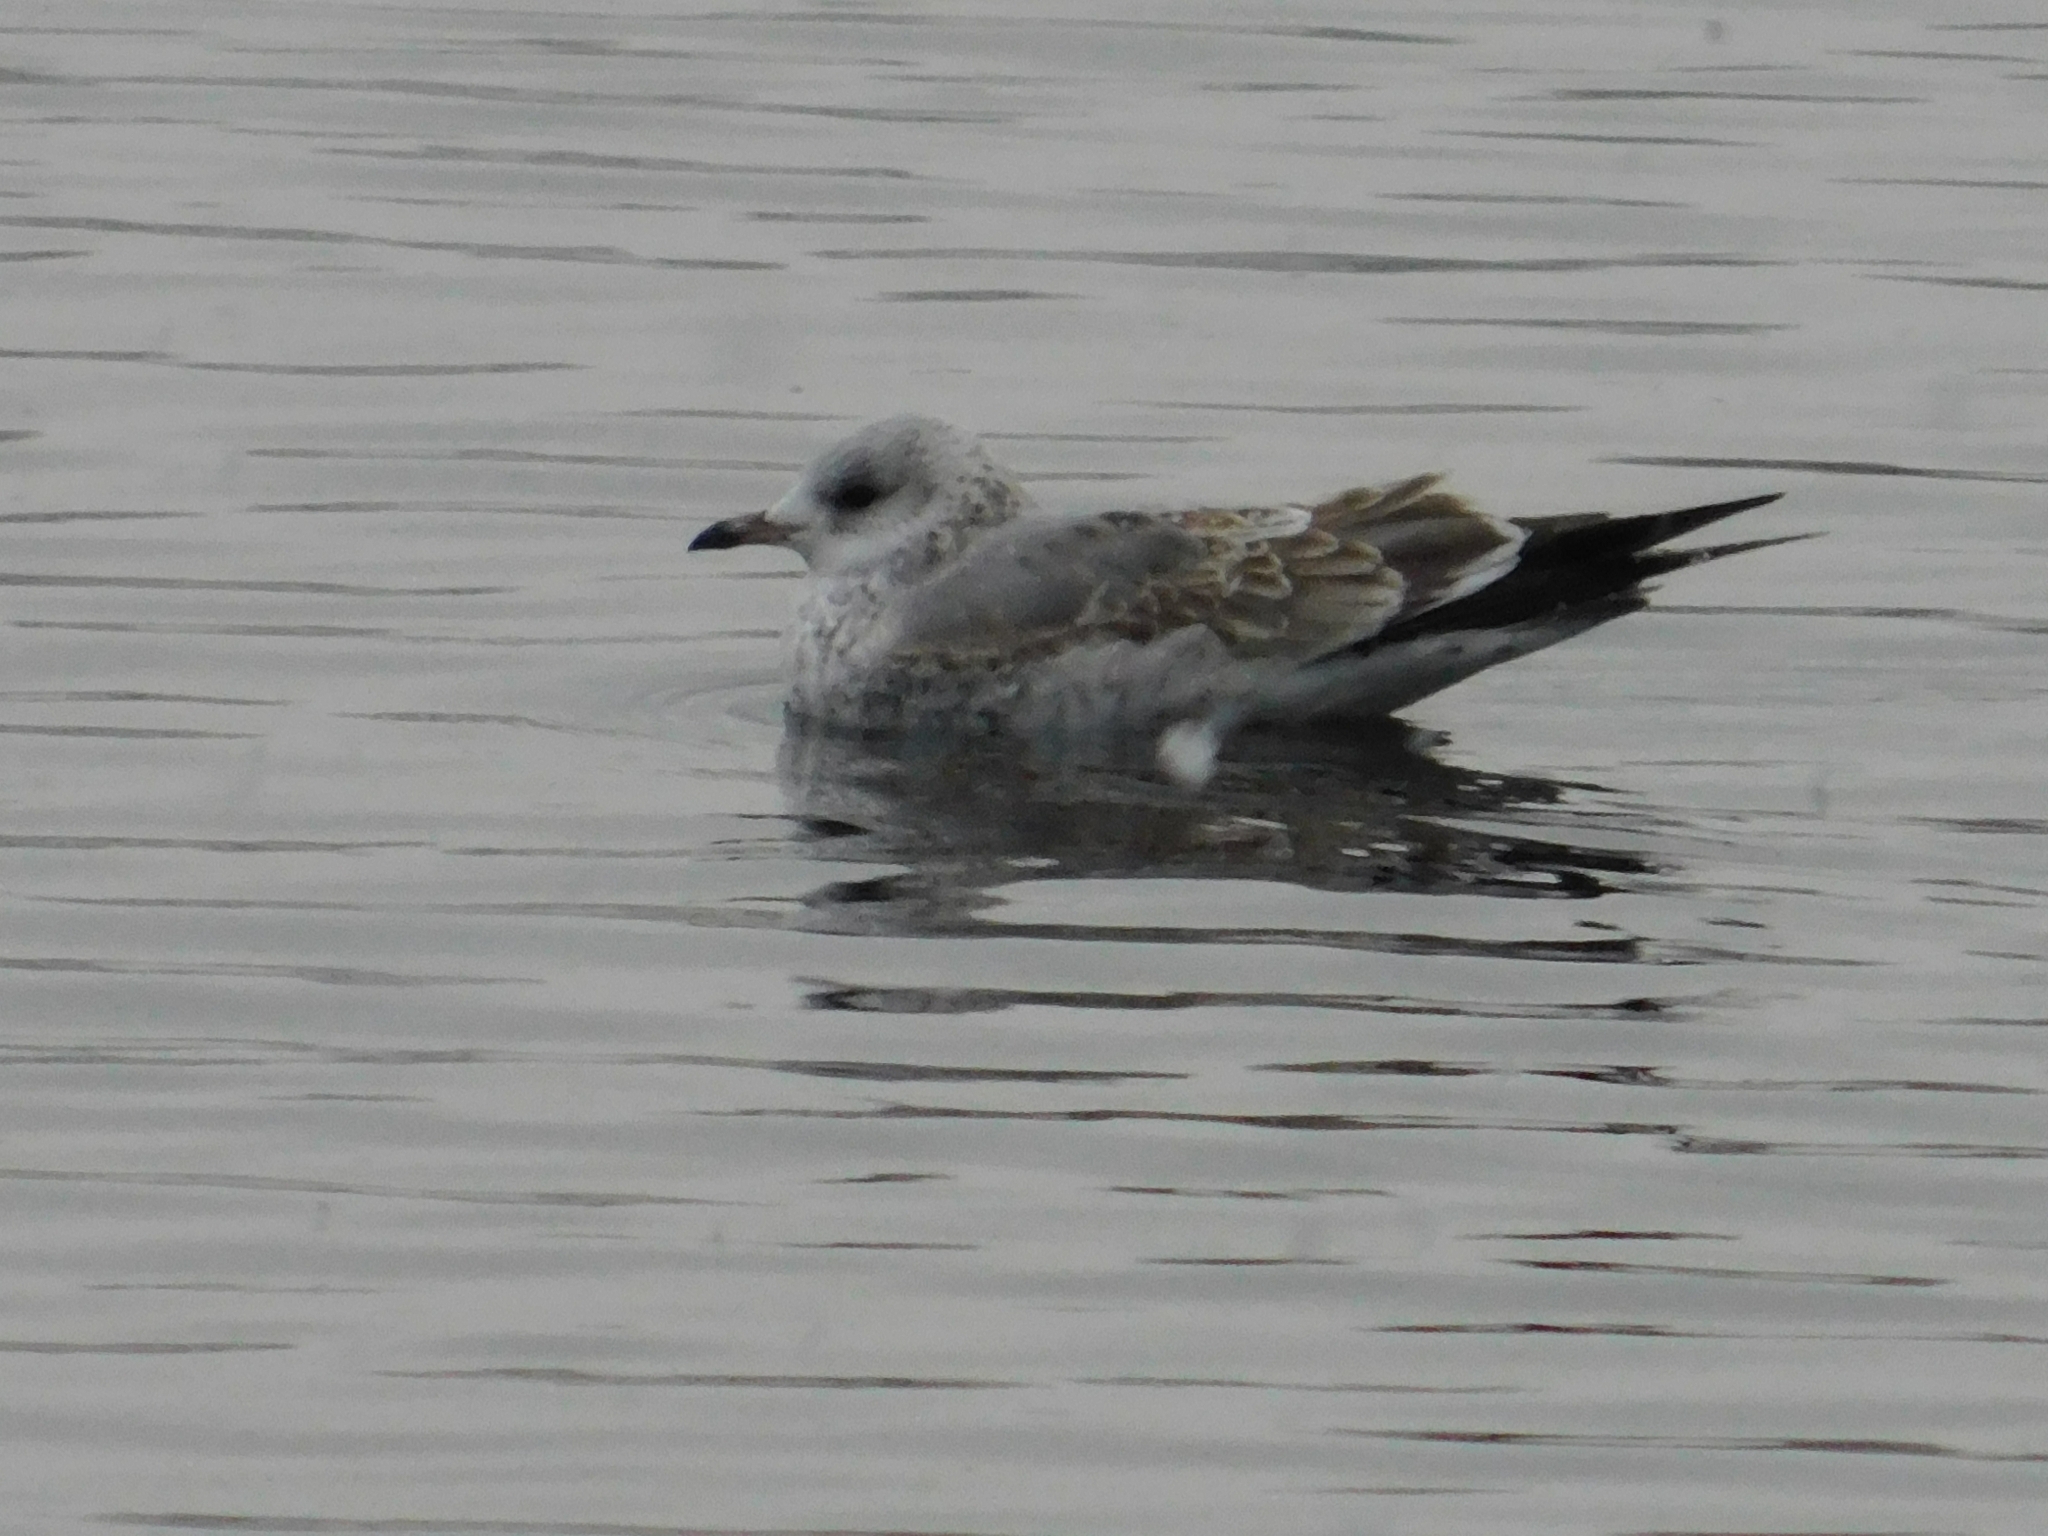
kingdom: Animalia
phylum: Chordata
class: Aves
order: Charadriiformes
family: Laridae
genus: Larus
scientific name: Larus canus
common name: Mew gull
